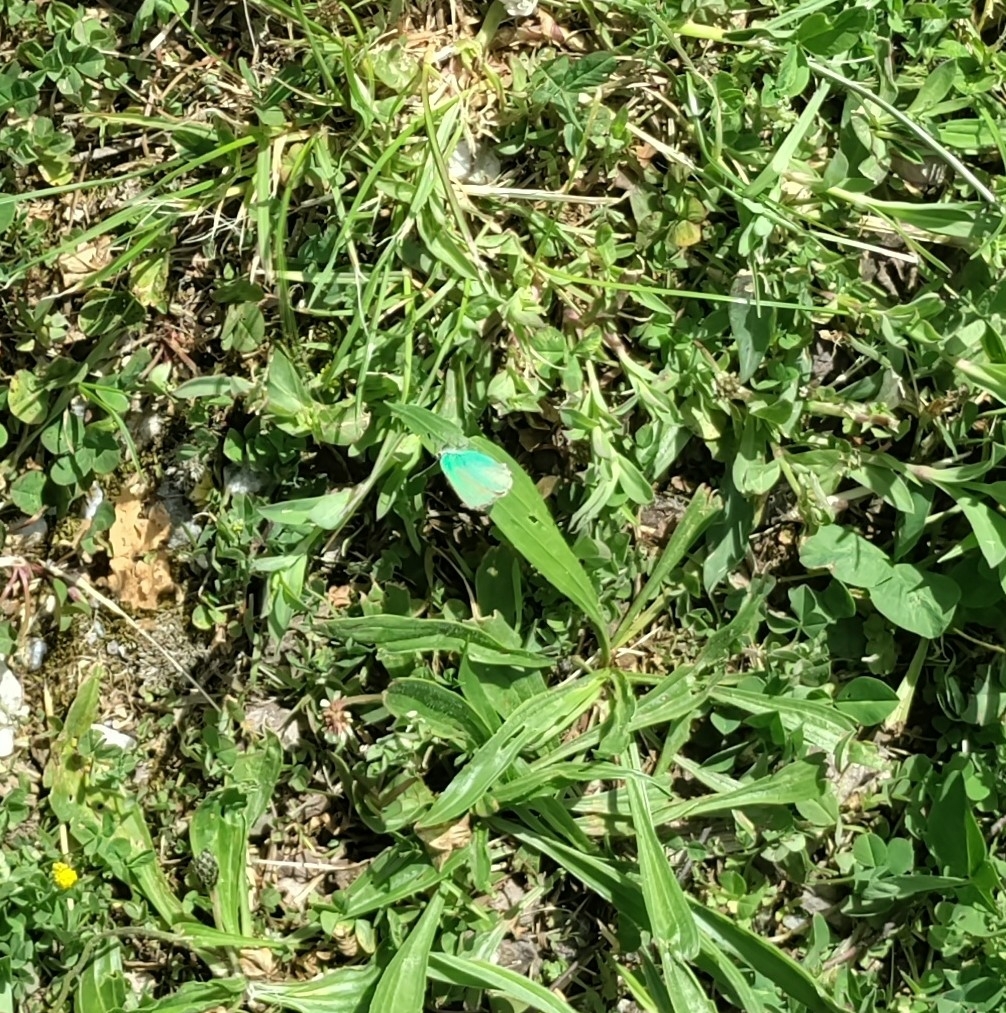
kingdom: Animalia
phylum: Arthropoda
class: Insecta
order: Lepidoptera
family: Lycaenidae
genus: Callophrys
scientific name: Callophrys rubi
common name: Green hairstreak
